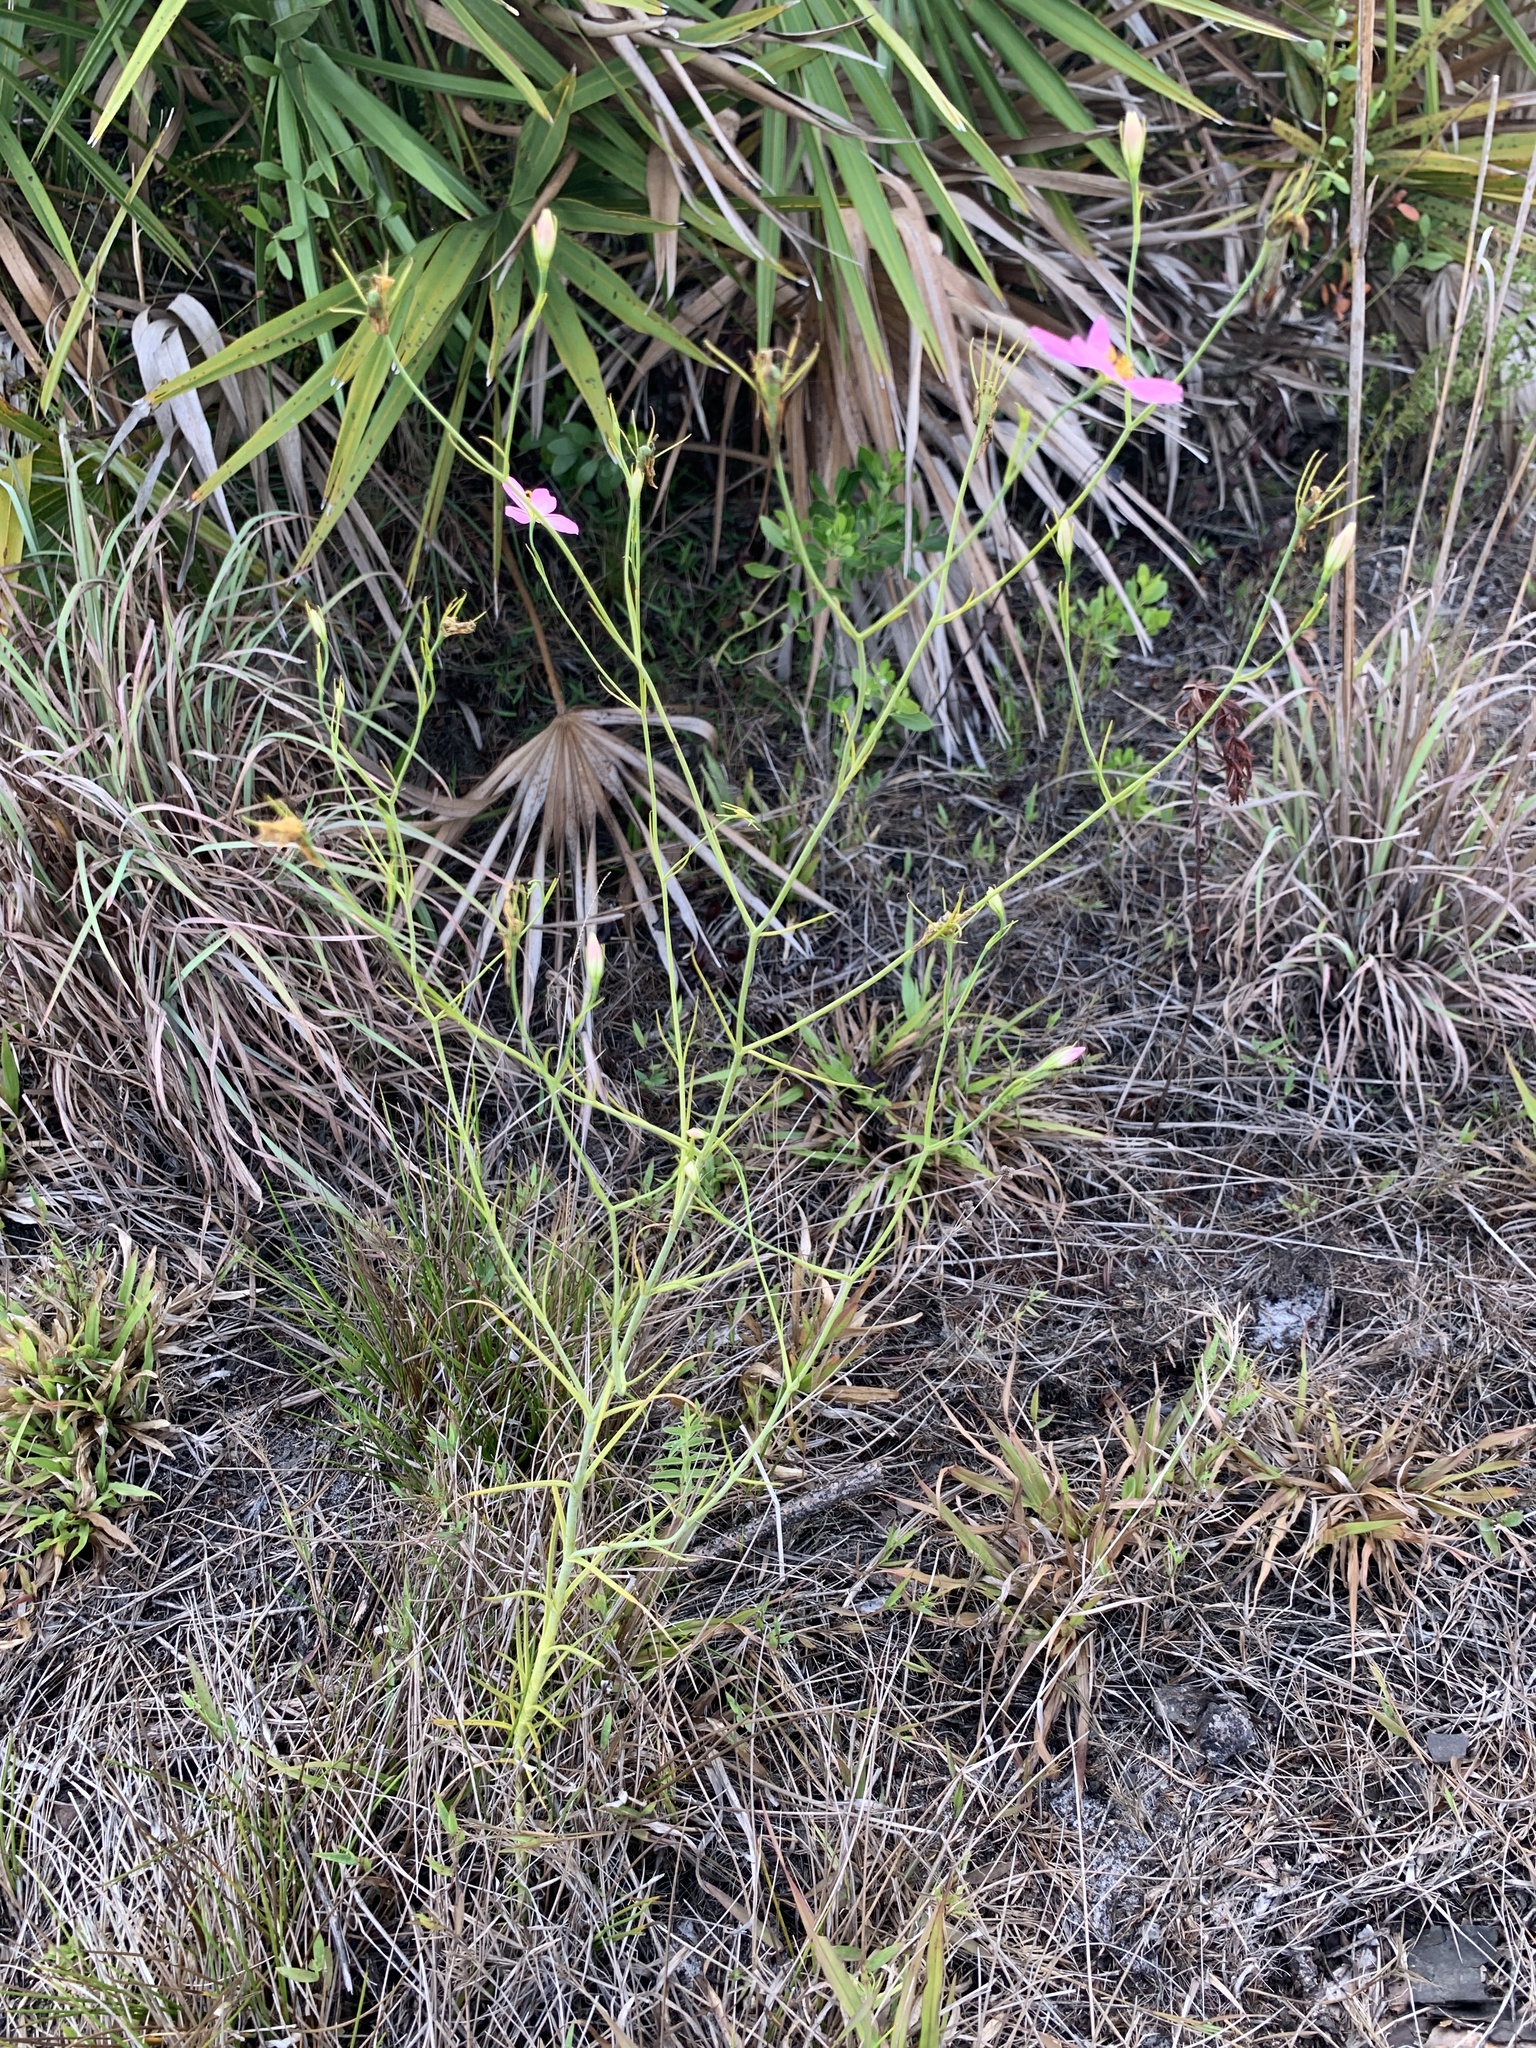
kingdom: Plantae
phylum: Tracheophyta
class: Magnoliopsida
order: Gentianales
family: Gentianaceae
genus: Sabatia
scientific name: Sabatia grandiflora
